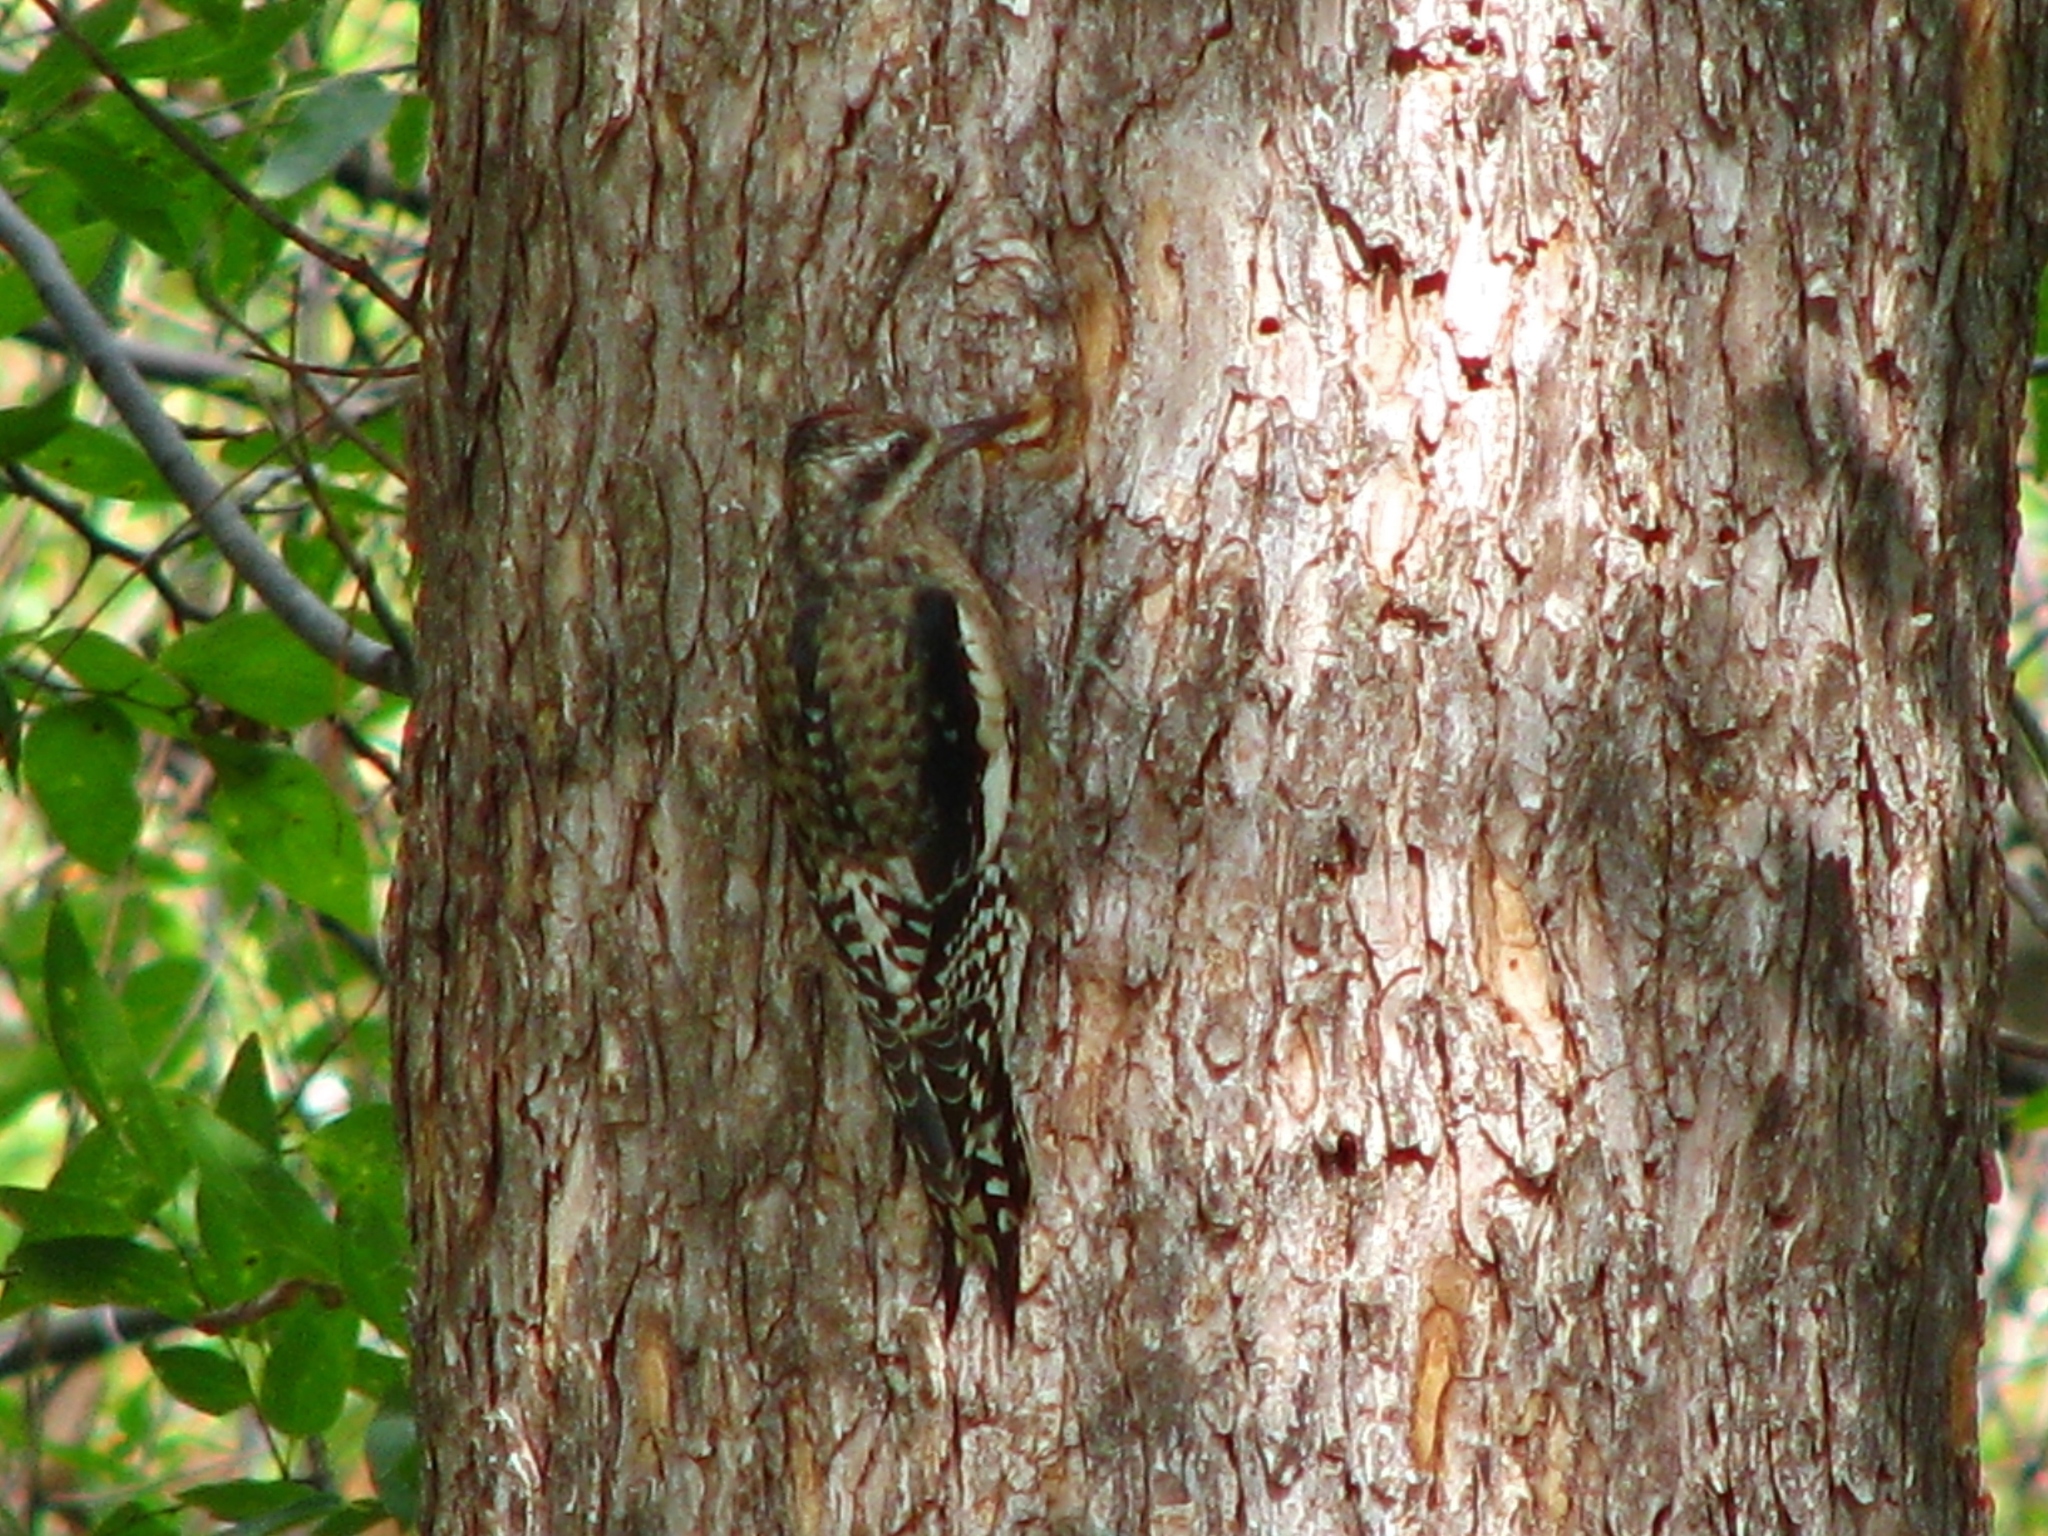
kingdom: Animalia
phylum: Chordata
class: Aves
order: Piciformes
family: Picidae
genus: Sphyrapicus
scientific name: Sphyrapicus varius
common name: Yellow-bellied sapsucker
